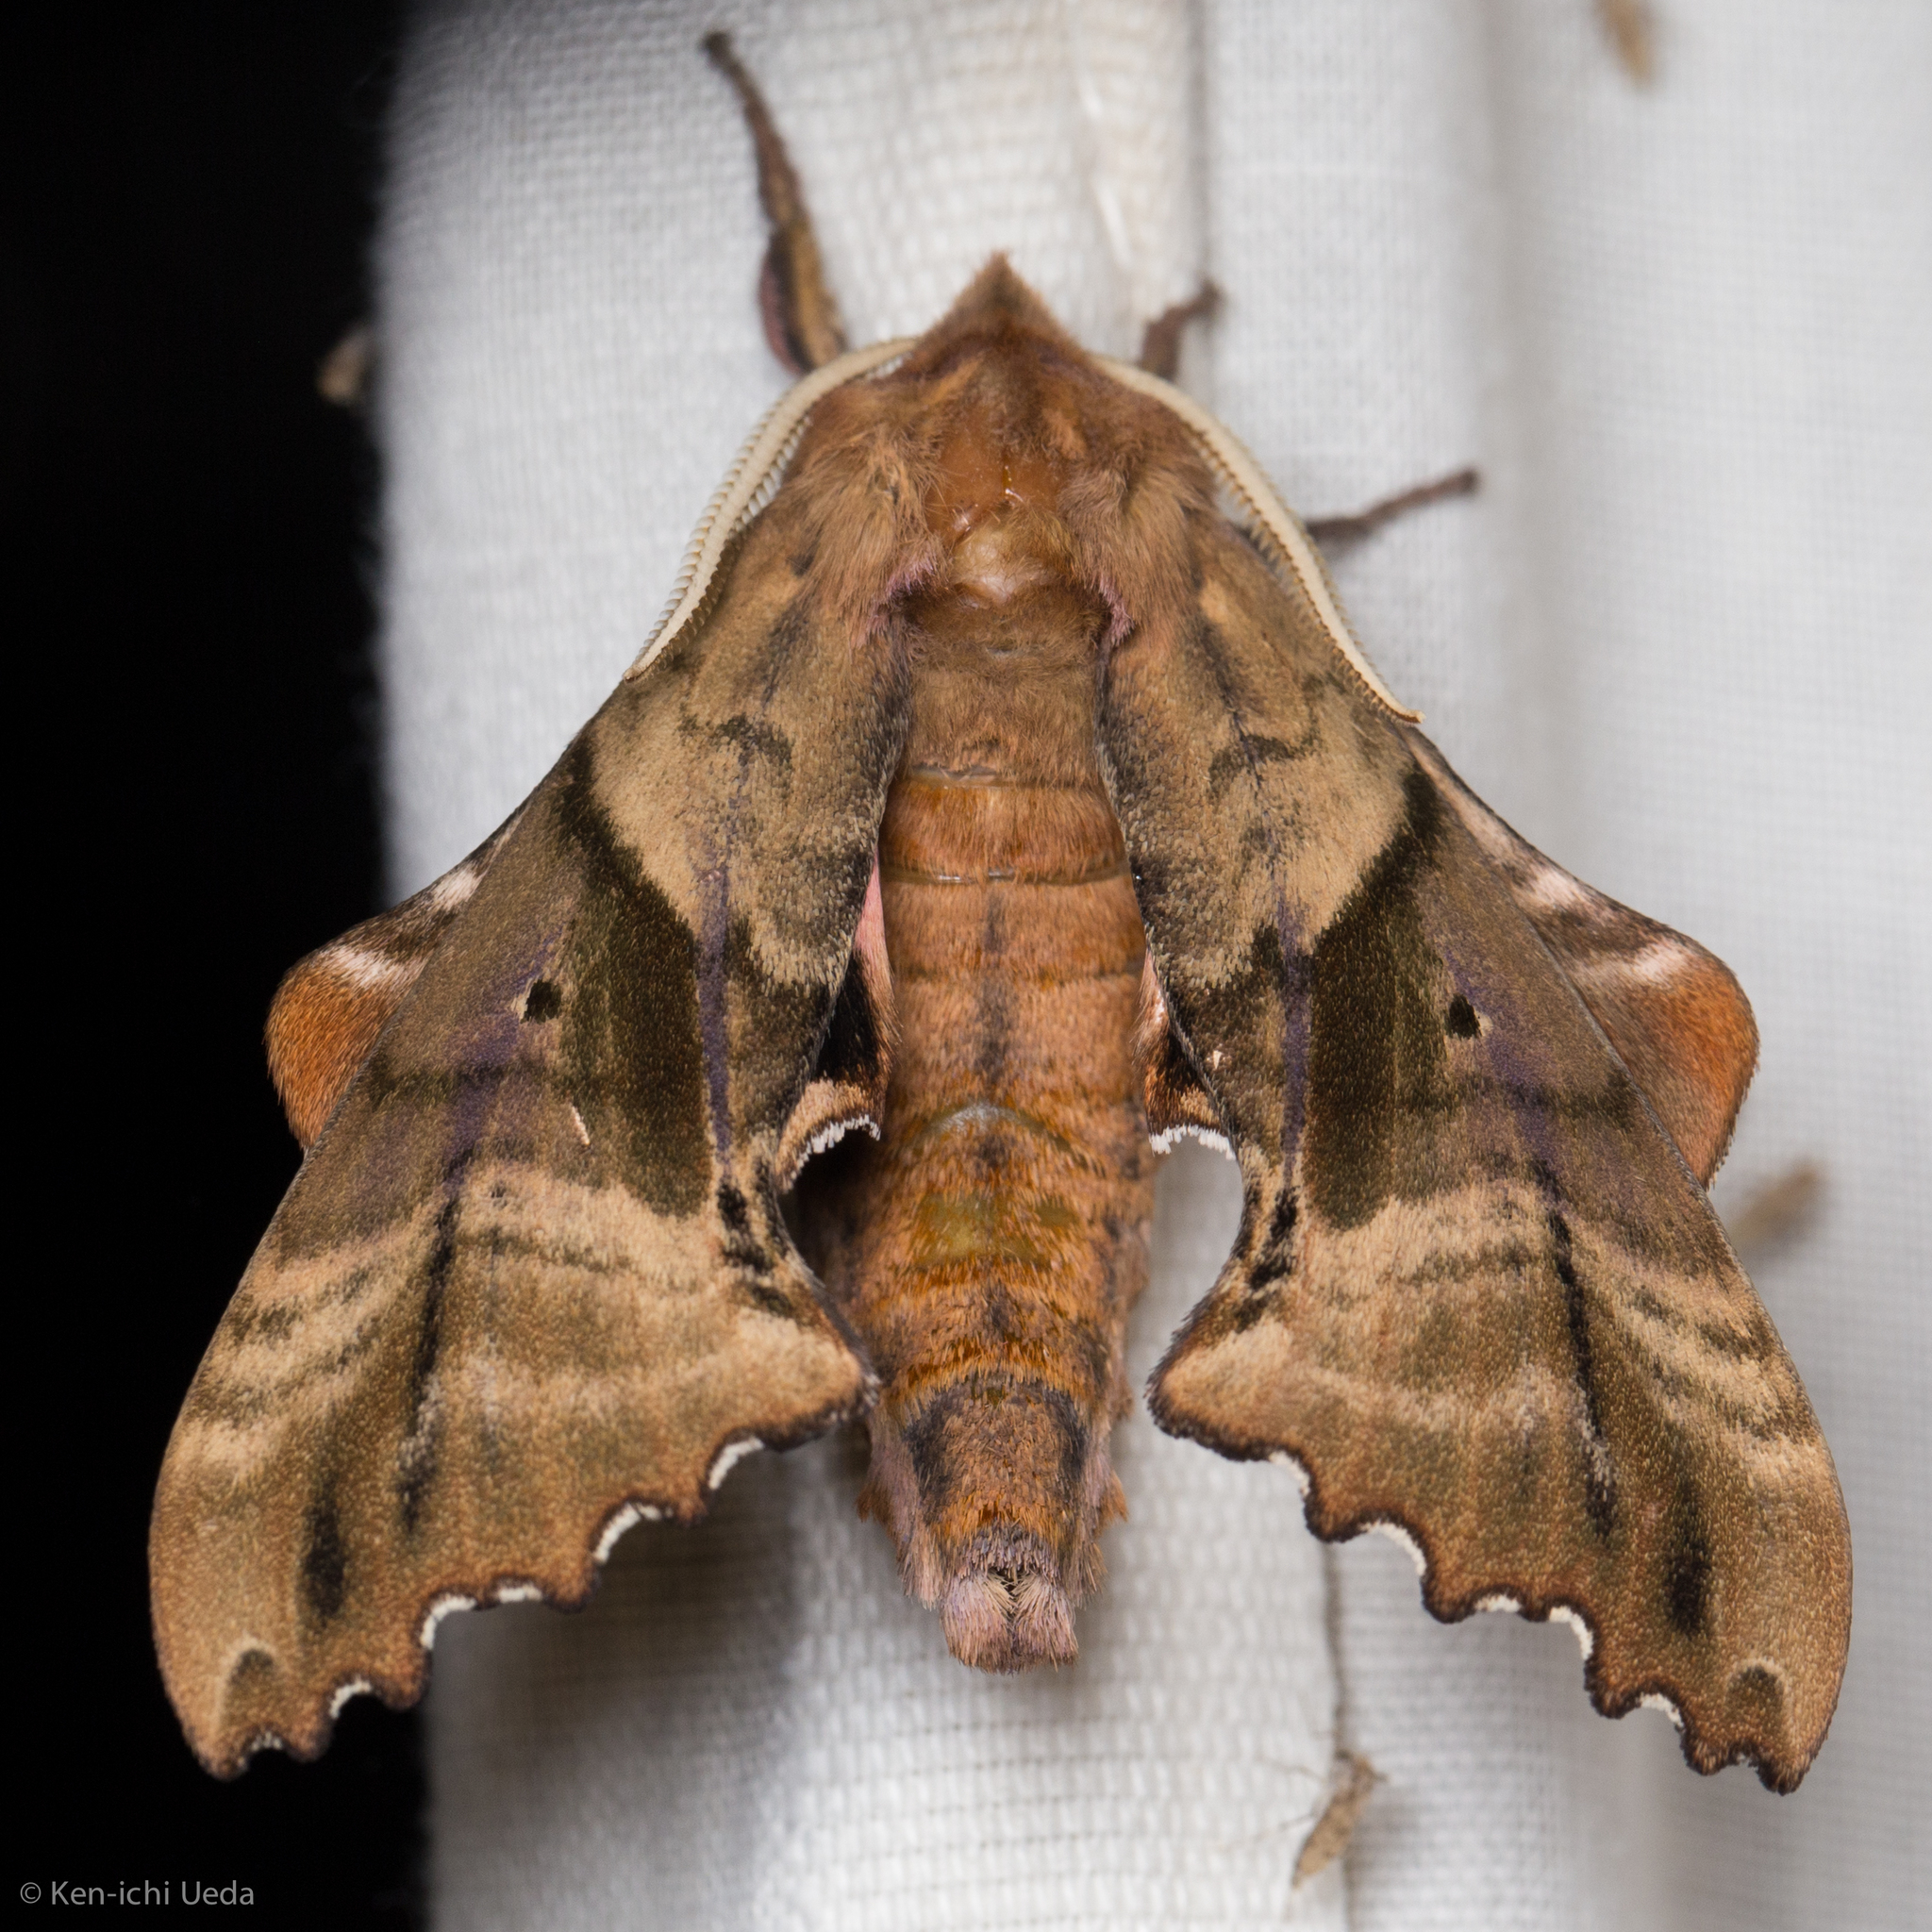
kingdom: Animalia
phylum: Arthropoda
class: Insecta
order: Lepidoptera
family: Sphingidae
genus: Paonias
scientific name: Paonias excaecata
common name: Blind-eyed sphinx
